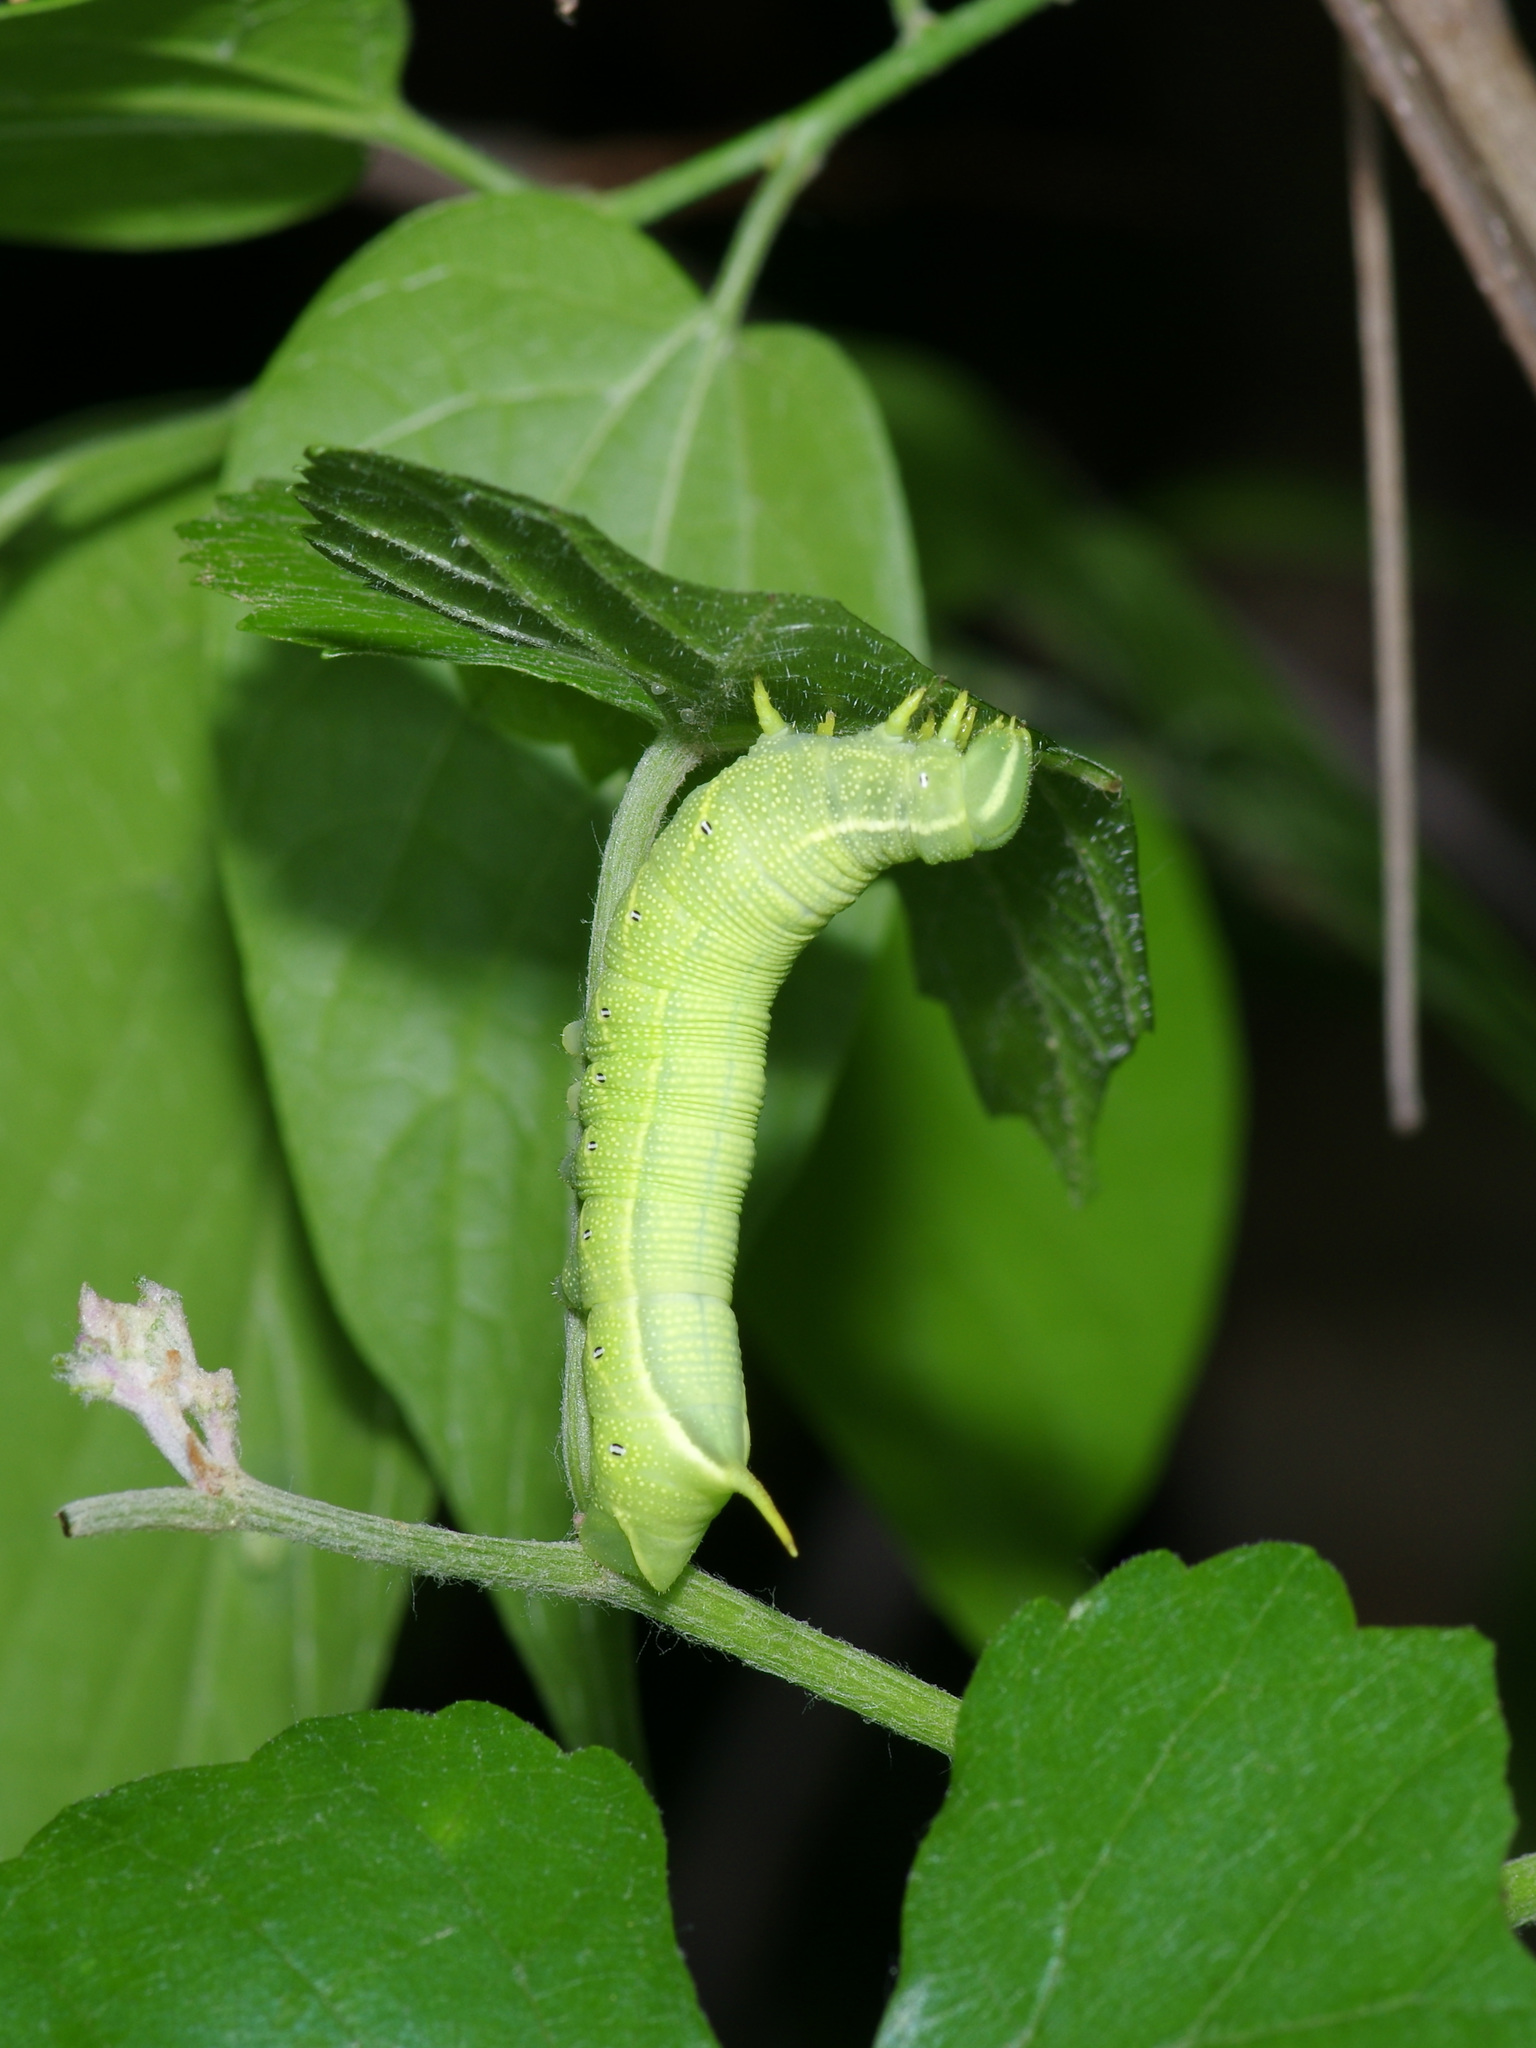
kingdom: Animalia
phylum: Arthropoda
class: Insecta
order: Lepidoptera
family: Sphingidae
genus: Deidamia
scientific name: Deidamia inscriptum
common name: Lettered sphinx
